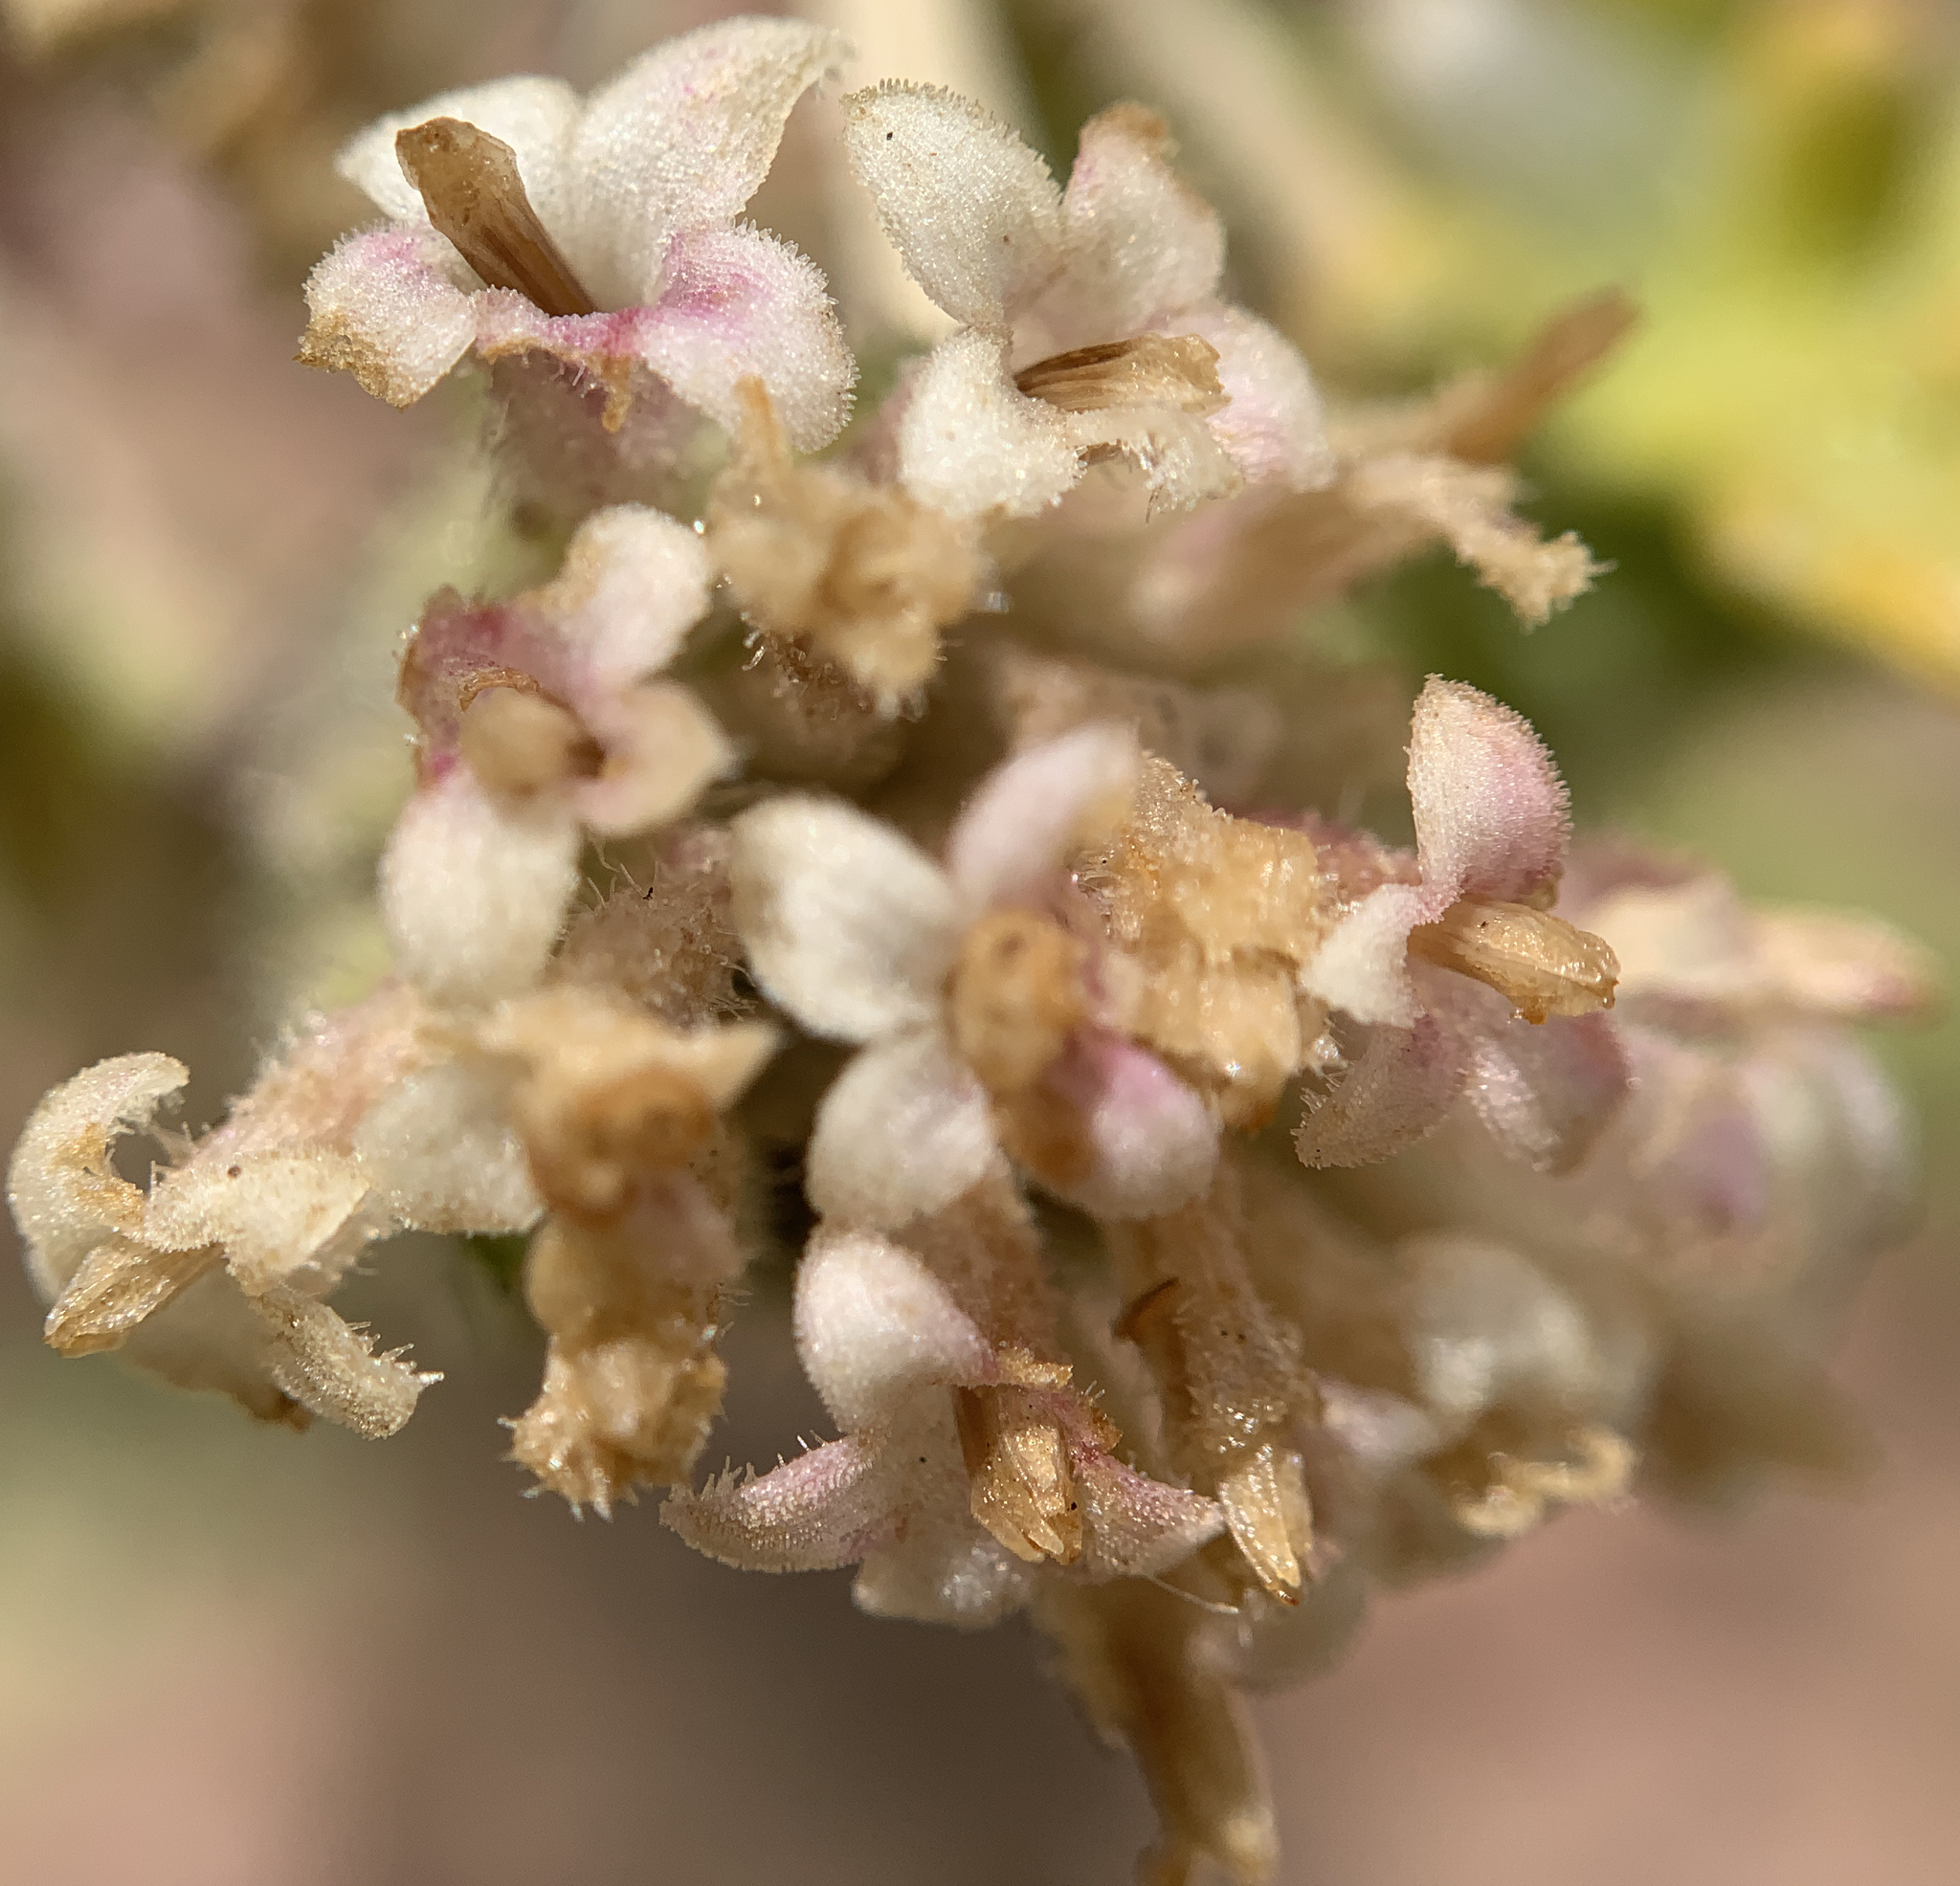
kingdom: Plantae
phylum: Tracheophyta
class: Magnoliopsida
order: Asterales
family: Asteraceae
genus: Chaenactis
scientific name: Chaenactis douglasii
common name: Hoary pincushion
